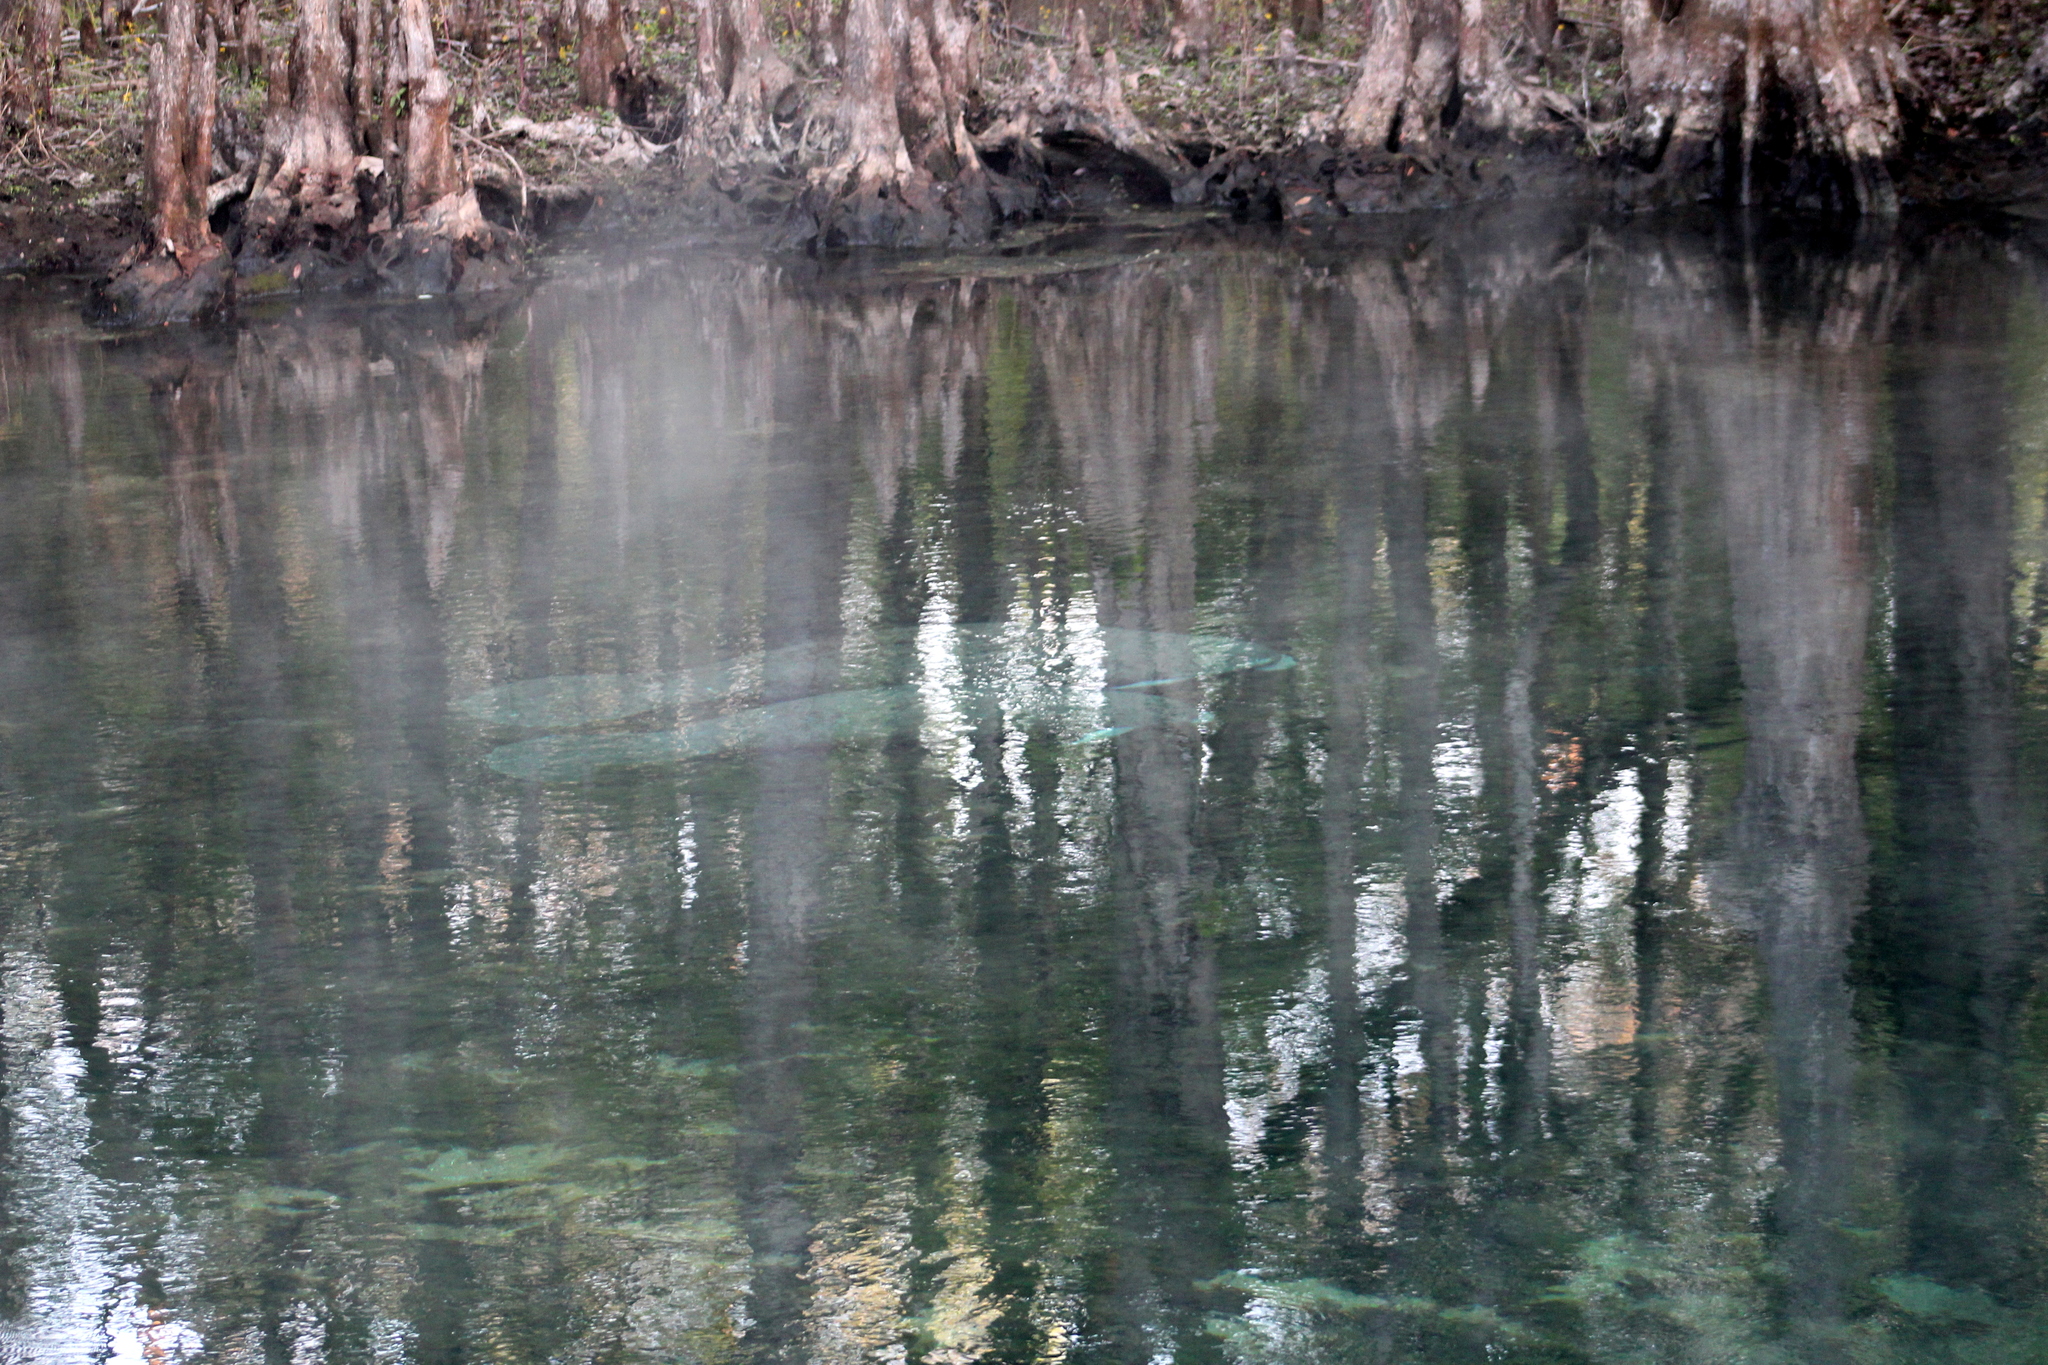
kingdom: Animalia
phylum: Chordata
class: Mammalia
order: Sirenia
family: Trichechidae
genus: Trichechus
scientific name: Trichechus manatus
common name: West indian manatee
